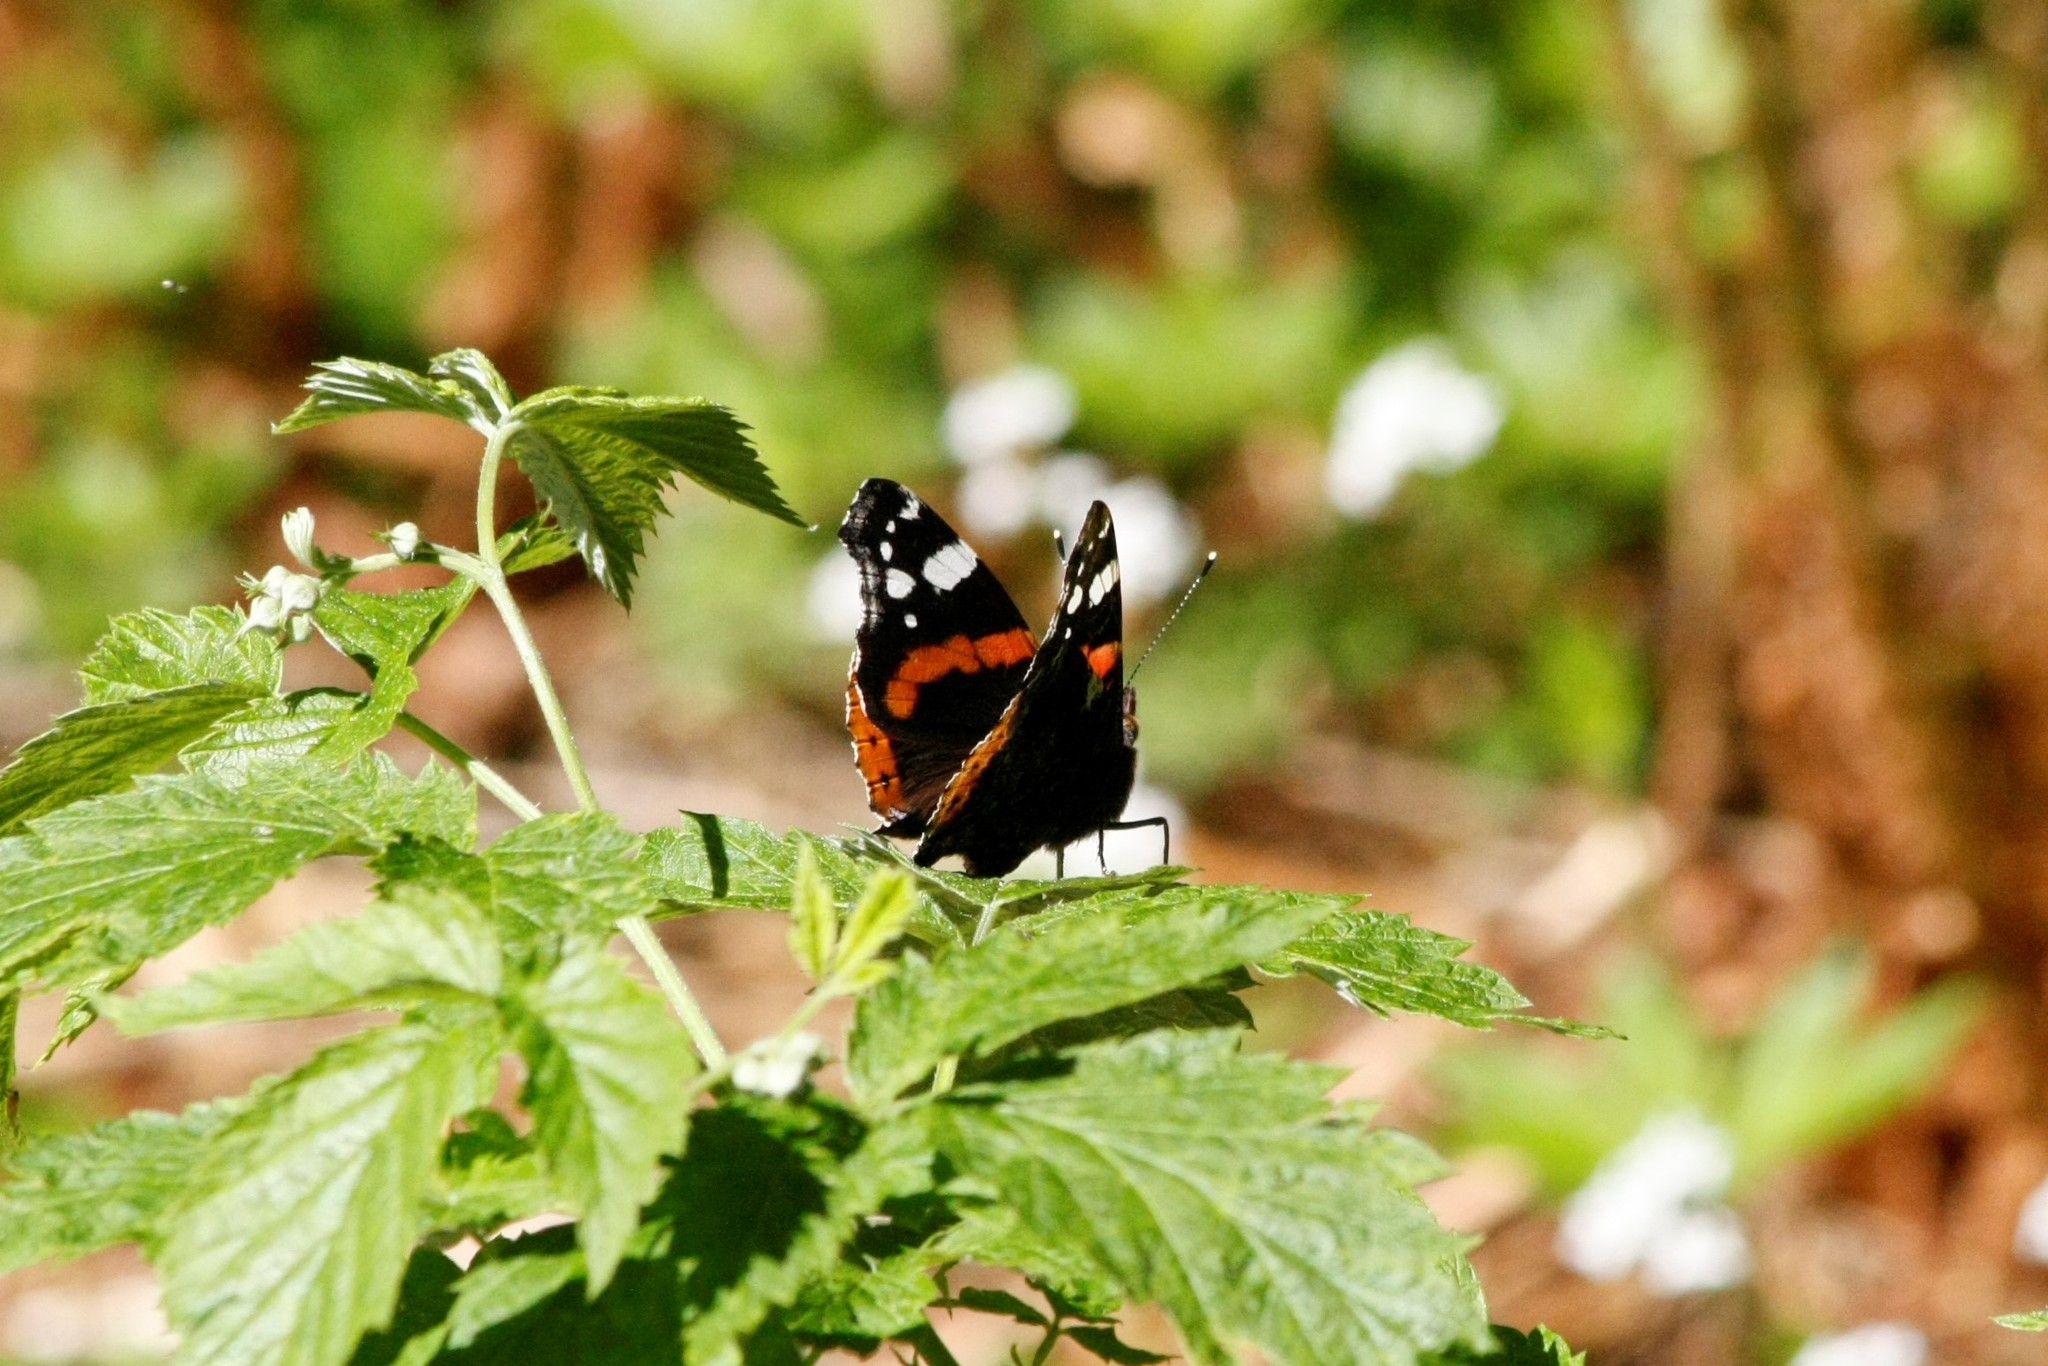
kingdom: Animalia
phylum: Arthropoda
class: Insecta
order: Lepidoptera
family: Nymphalidae
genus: Vanessa
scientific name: Vanessa atalanta
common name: Red admiral
